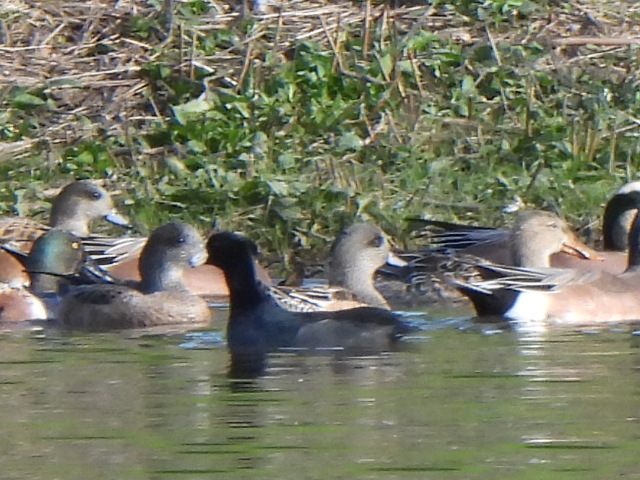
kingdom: Animalia
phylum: Chordata
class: Aves
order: Gruiformes
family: Rallidae
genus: Fulica
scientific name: Fulica americana
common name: American coot
